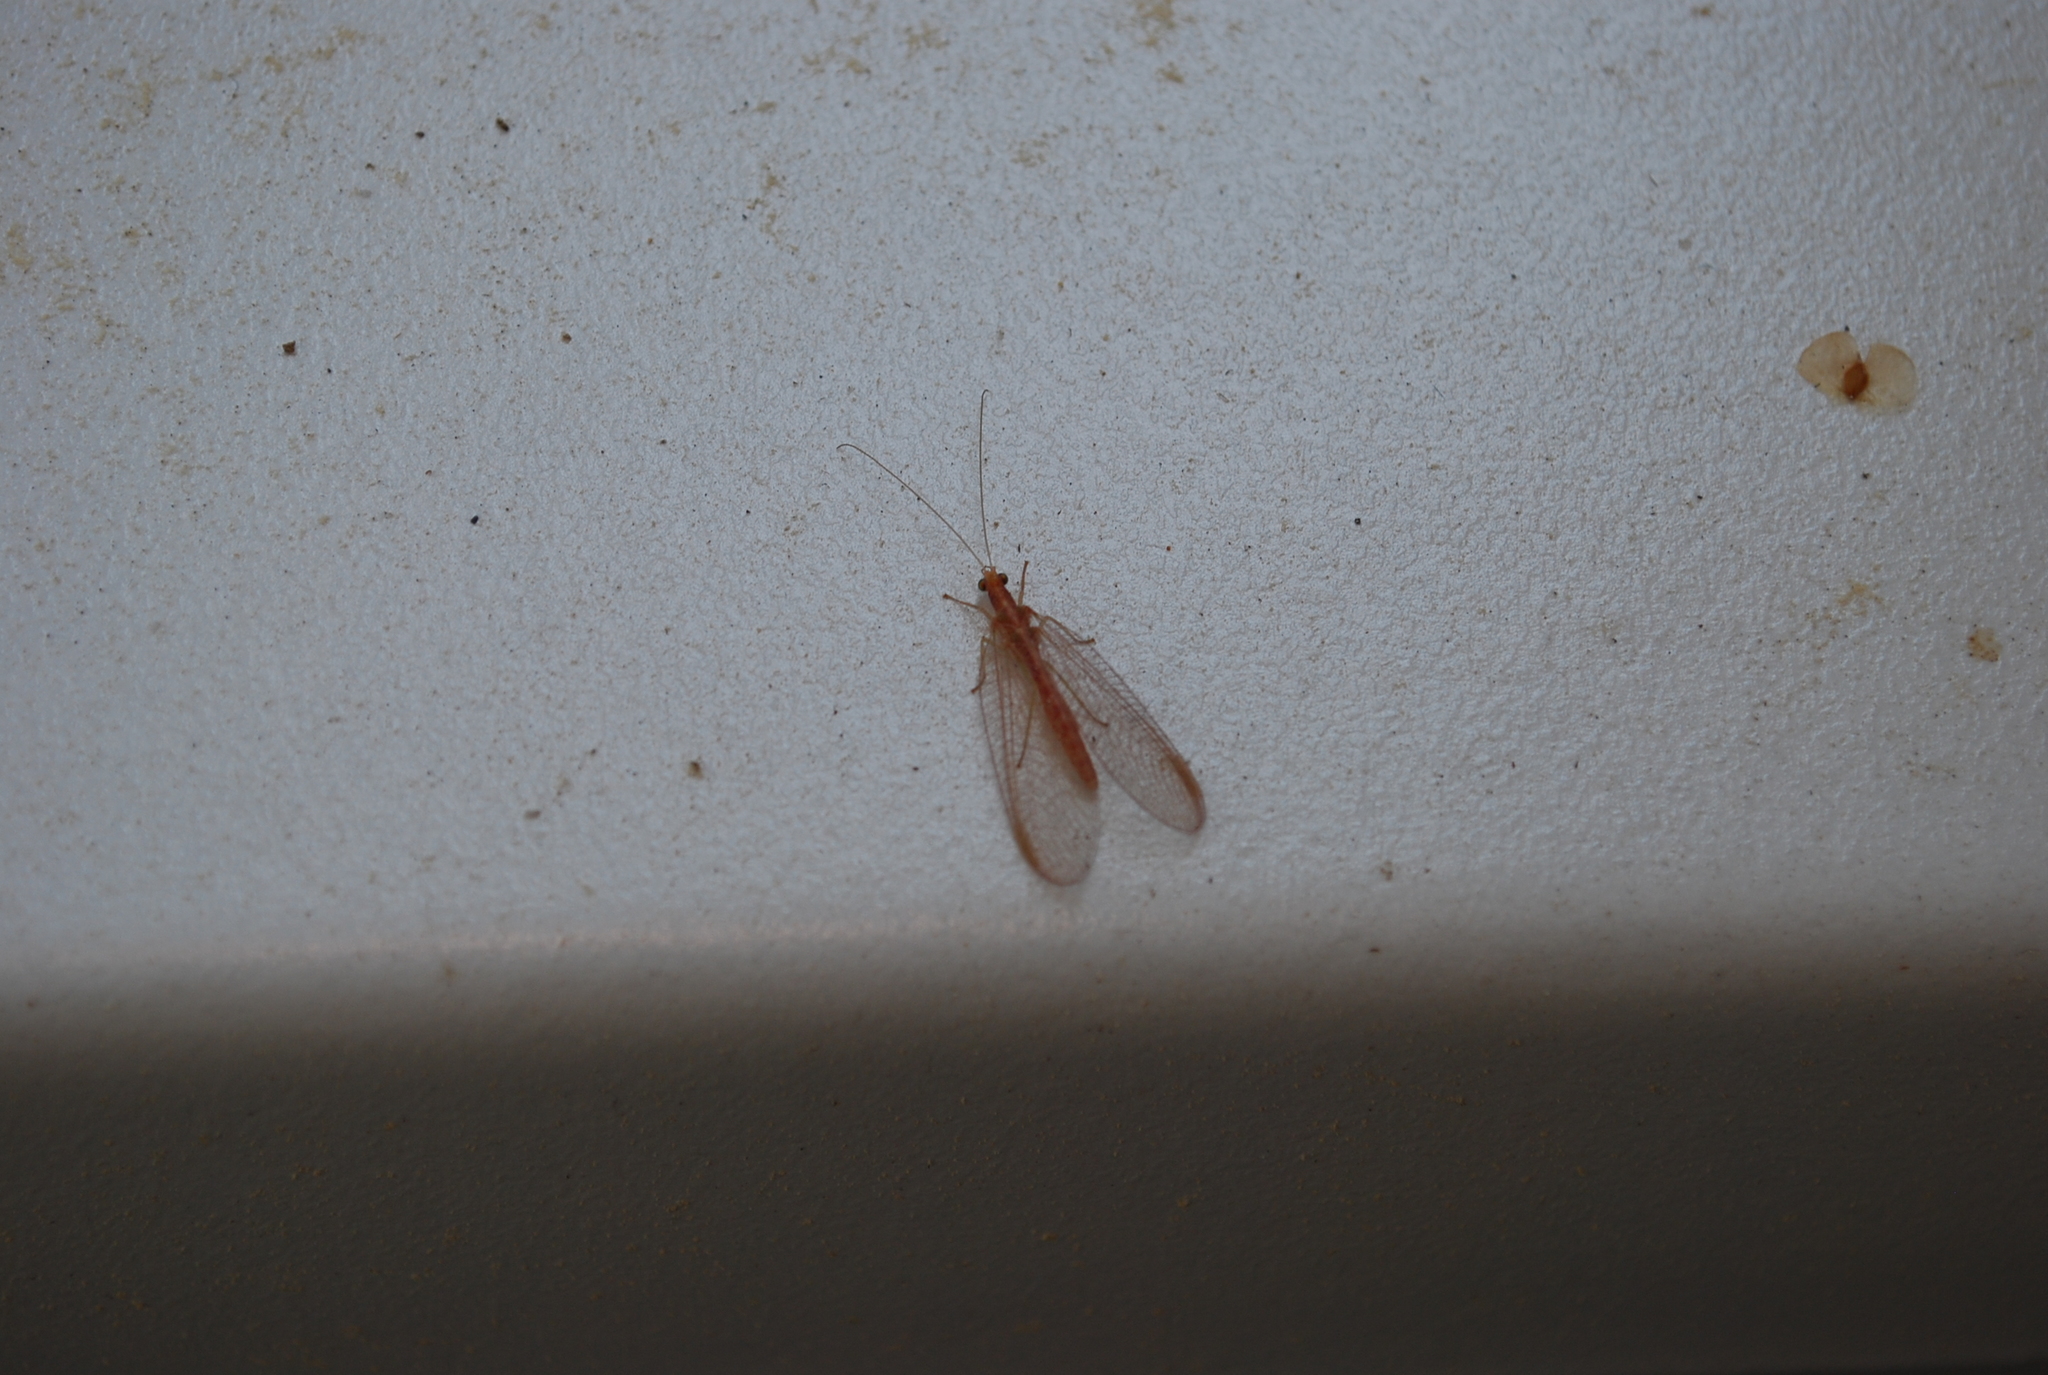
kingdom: Animalia
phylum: Arthropoda
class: Insecta
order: Neuroptera
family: Chrysopidae
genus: Chrysoperla
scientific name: Chrysoperla
